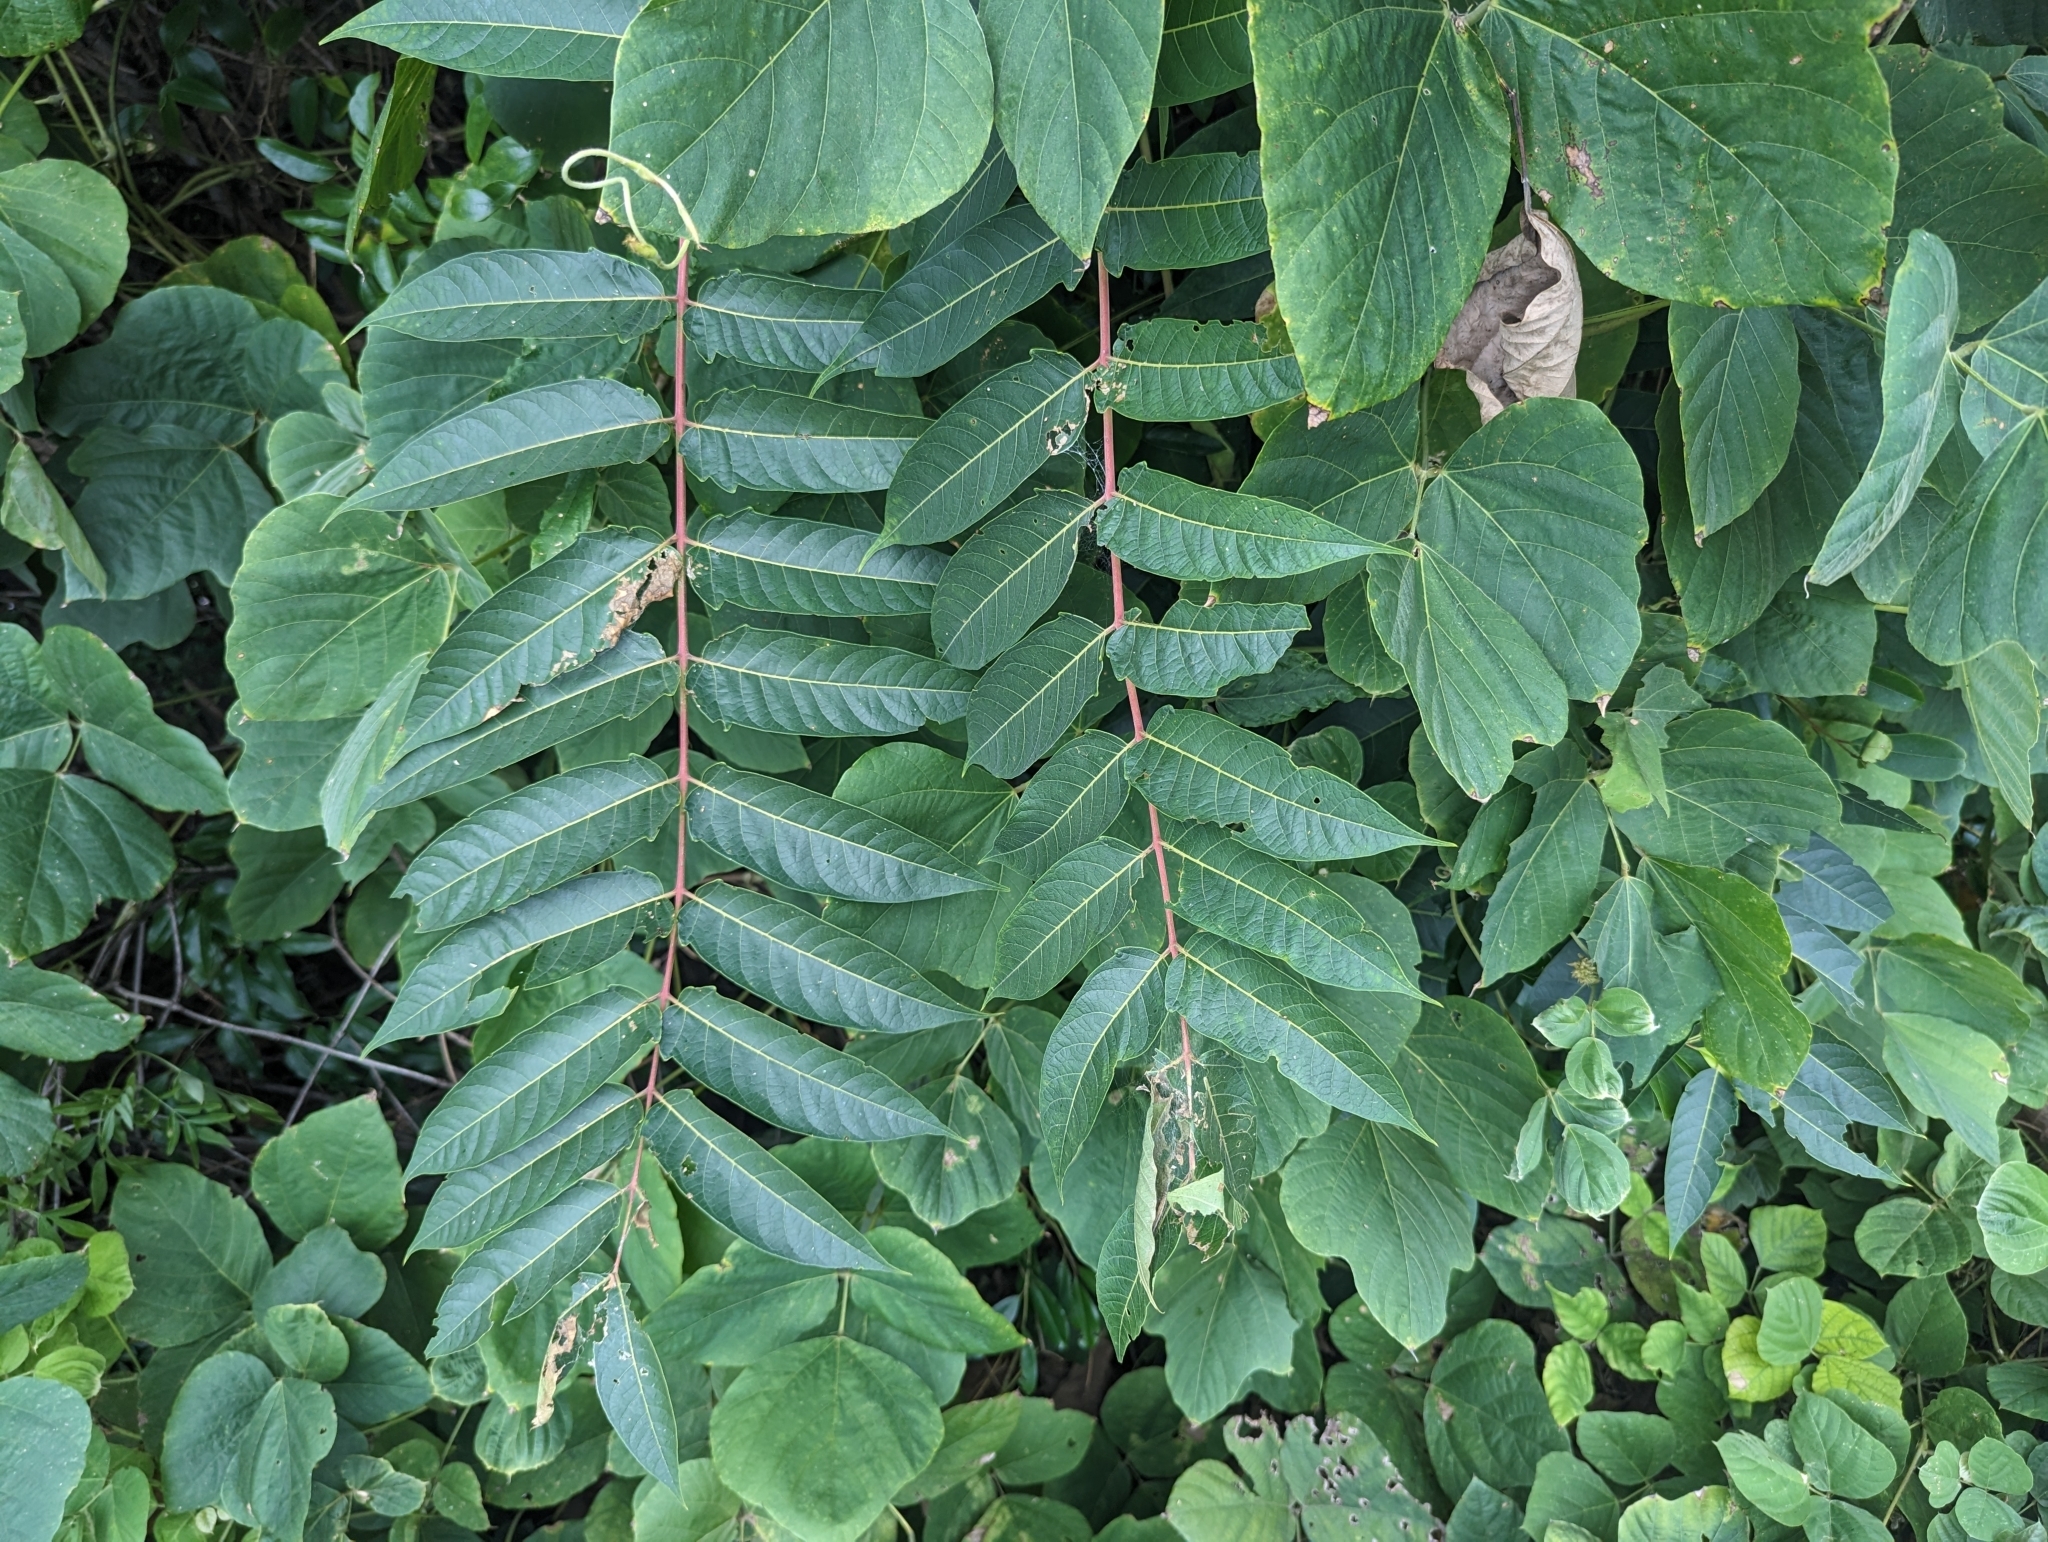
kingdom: Plantae
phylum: Tracheophyta
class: Magnoliopsida
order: Sapindales
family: Simaroubaceae
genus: Ailanthus
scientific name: Ailanthus altissima
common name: Tree-of-heaven
